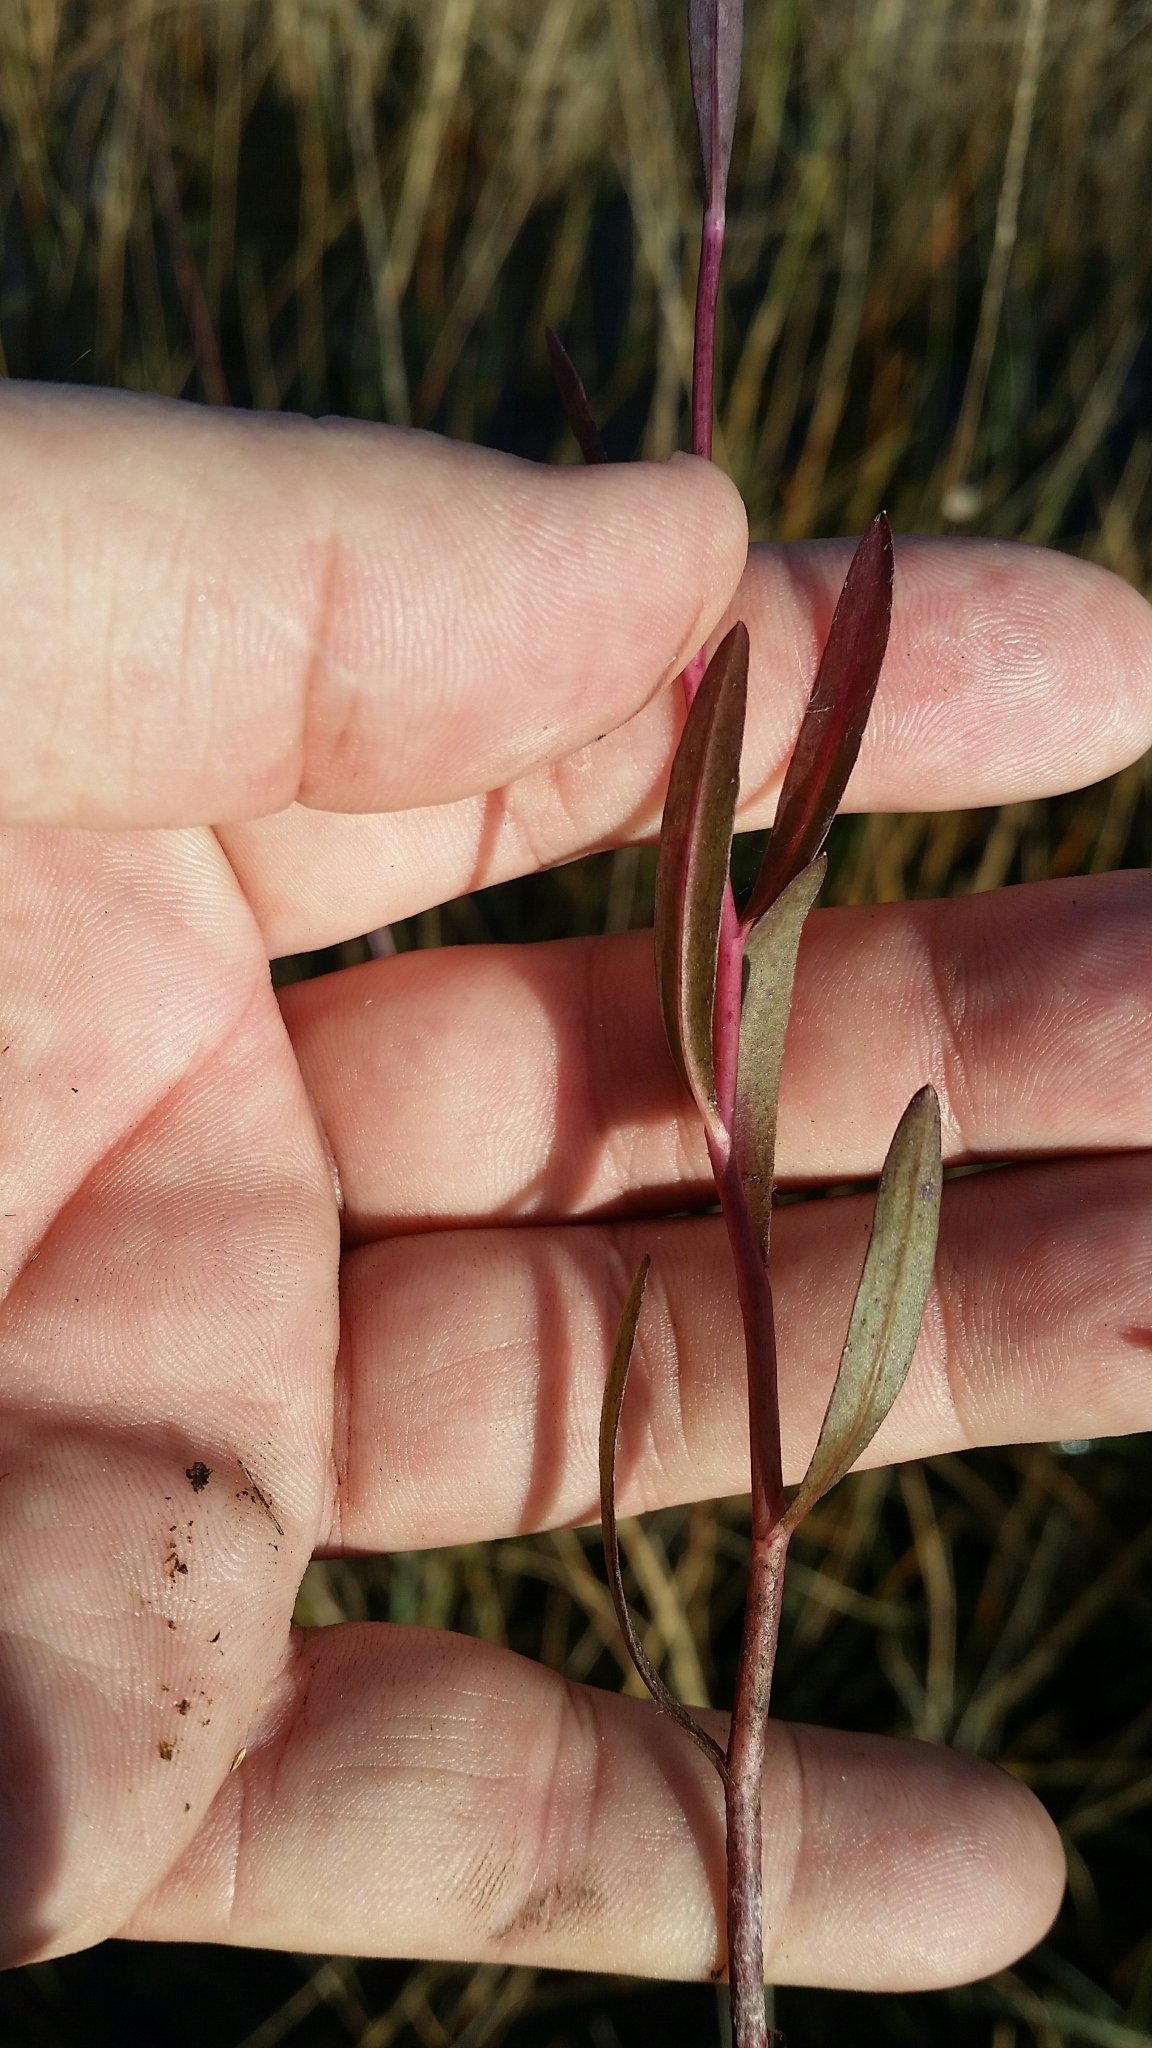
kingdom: Plantae
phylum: Tracheophyta
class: Magnoliopsida
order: Asterales
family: Asteraceae
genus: Boltonia
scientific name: Boltonia diffusa
